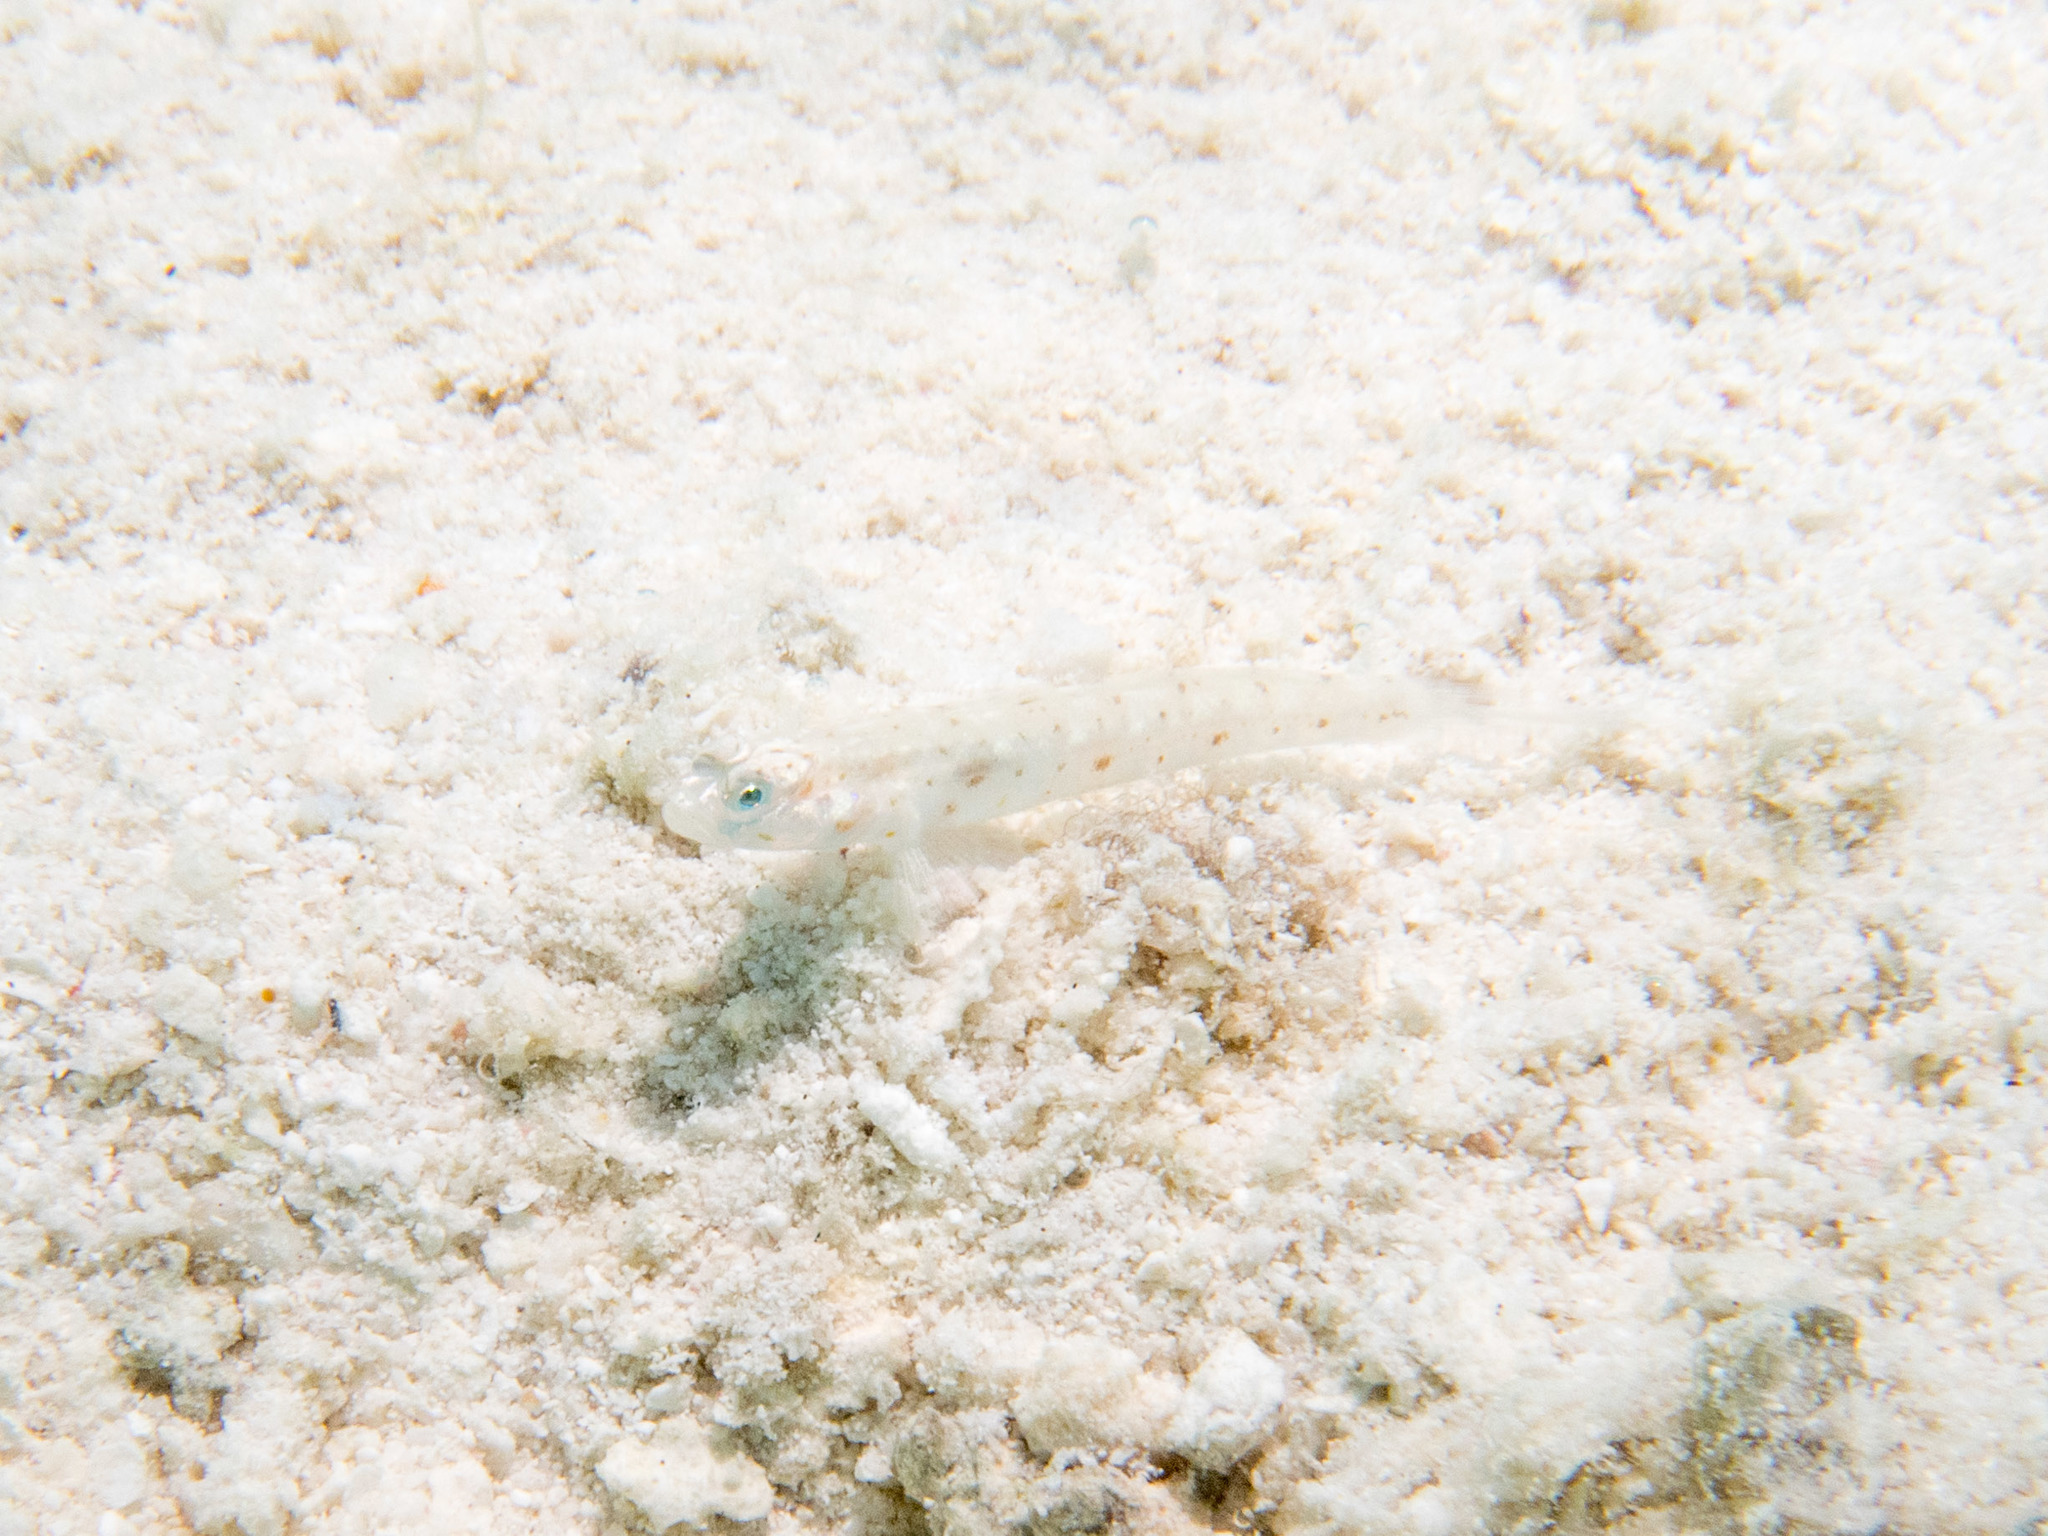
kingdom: Animalia
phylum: Chordata
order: Perciformes
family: Gobiidae
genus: Vanderhorstia
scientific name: Vanderhorstia ornatissima
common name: Blue-barred shrimp-goby
